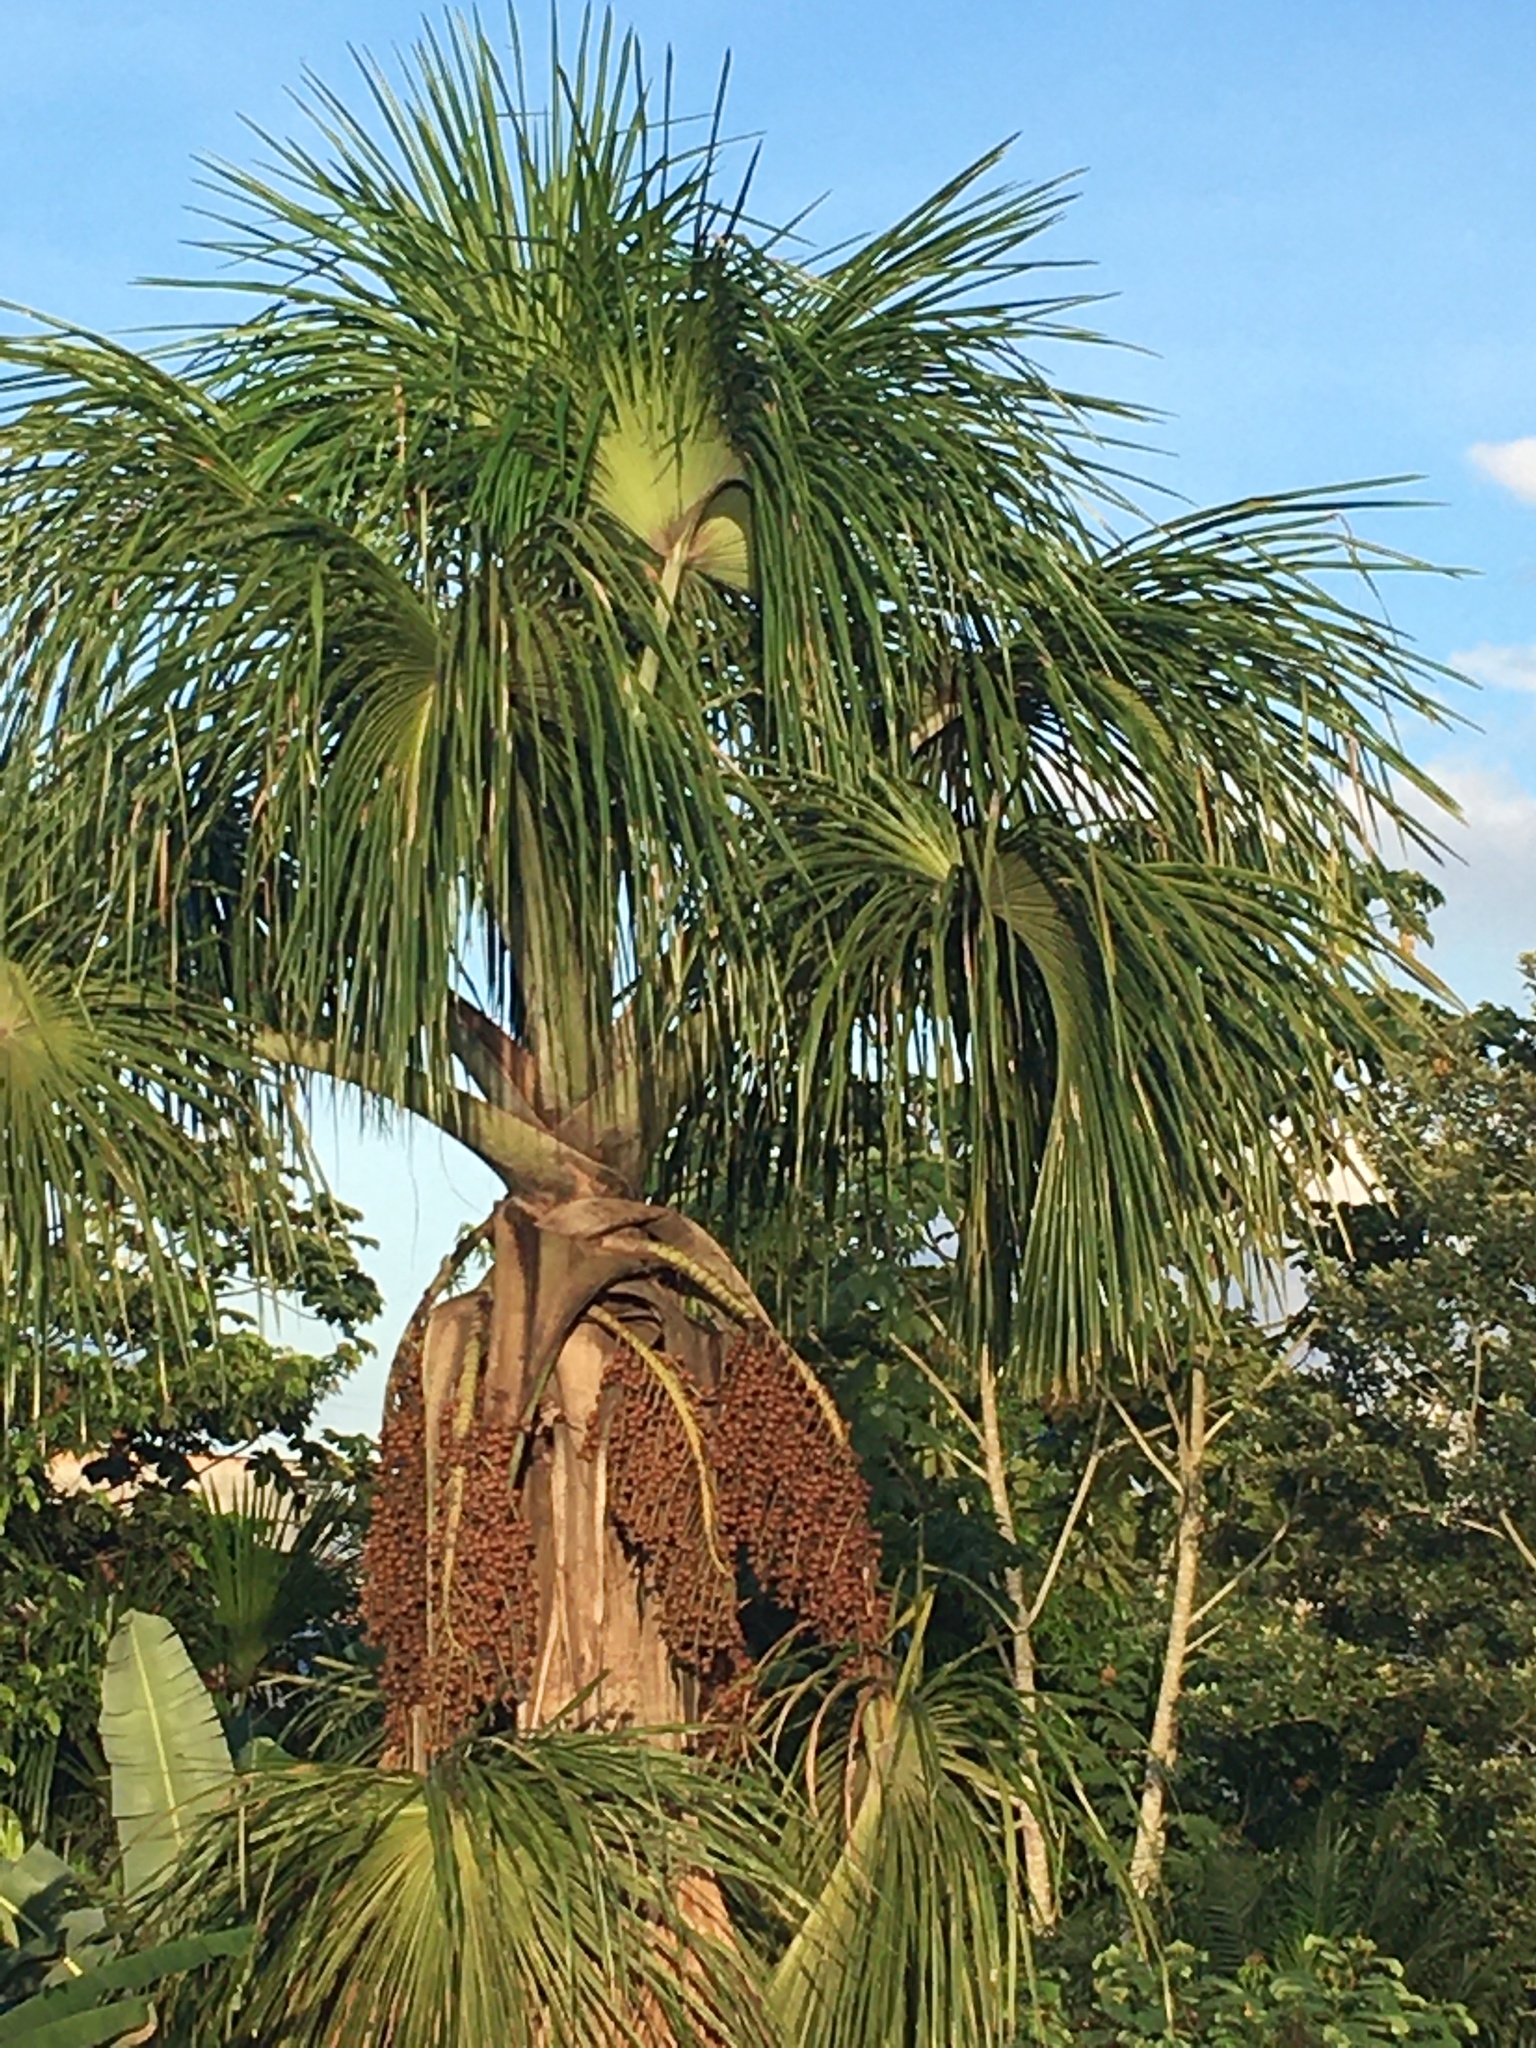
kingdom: Plantae
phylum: Tracheophyta
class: Liliopsida
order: Arecales
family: Arecaceae
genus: Mauritia
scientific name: Mauritia flexuosa
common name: Tree-of-life
